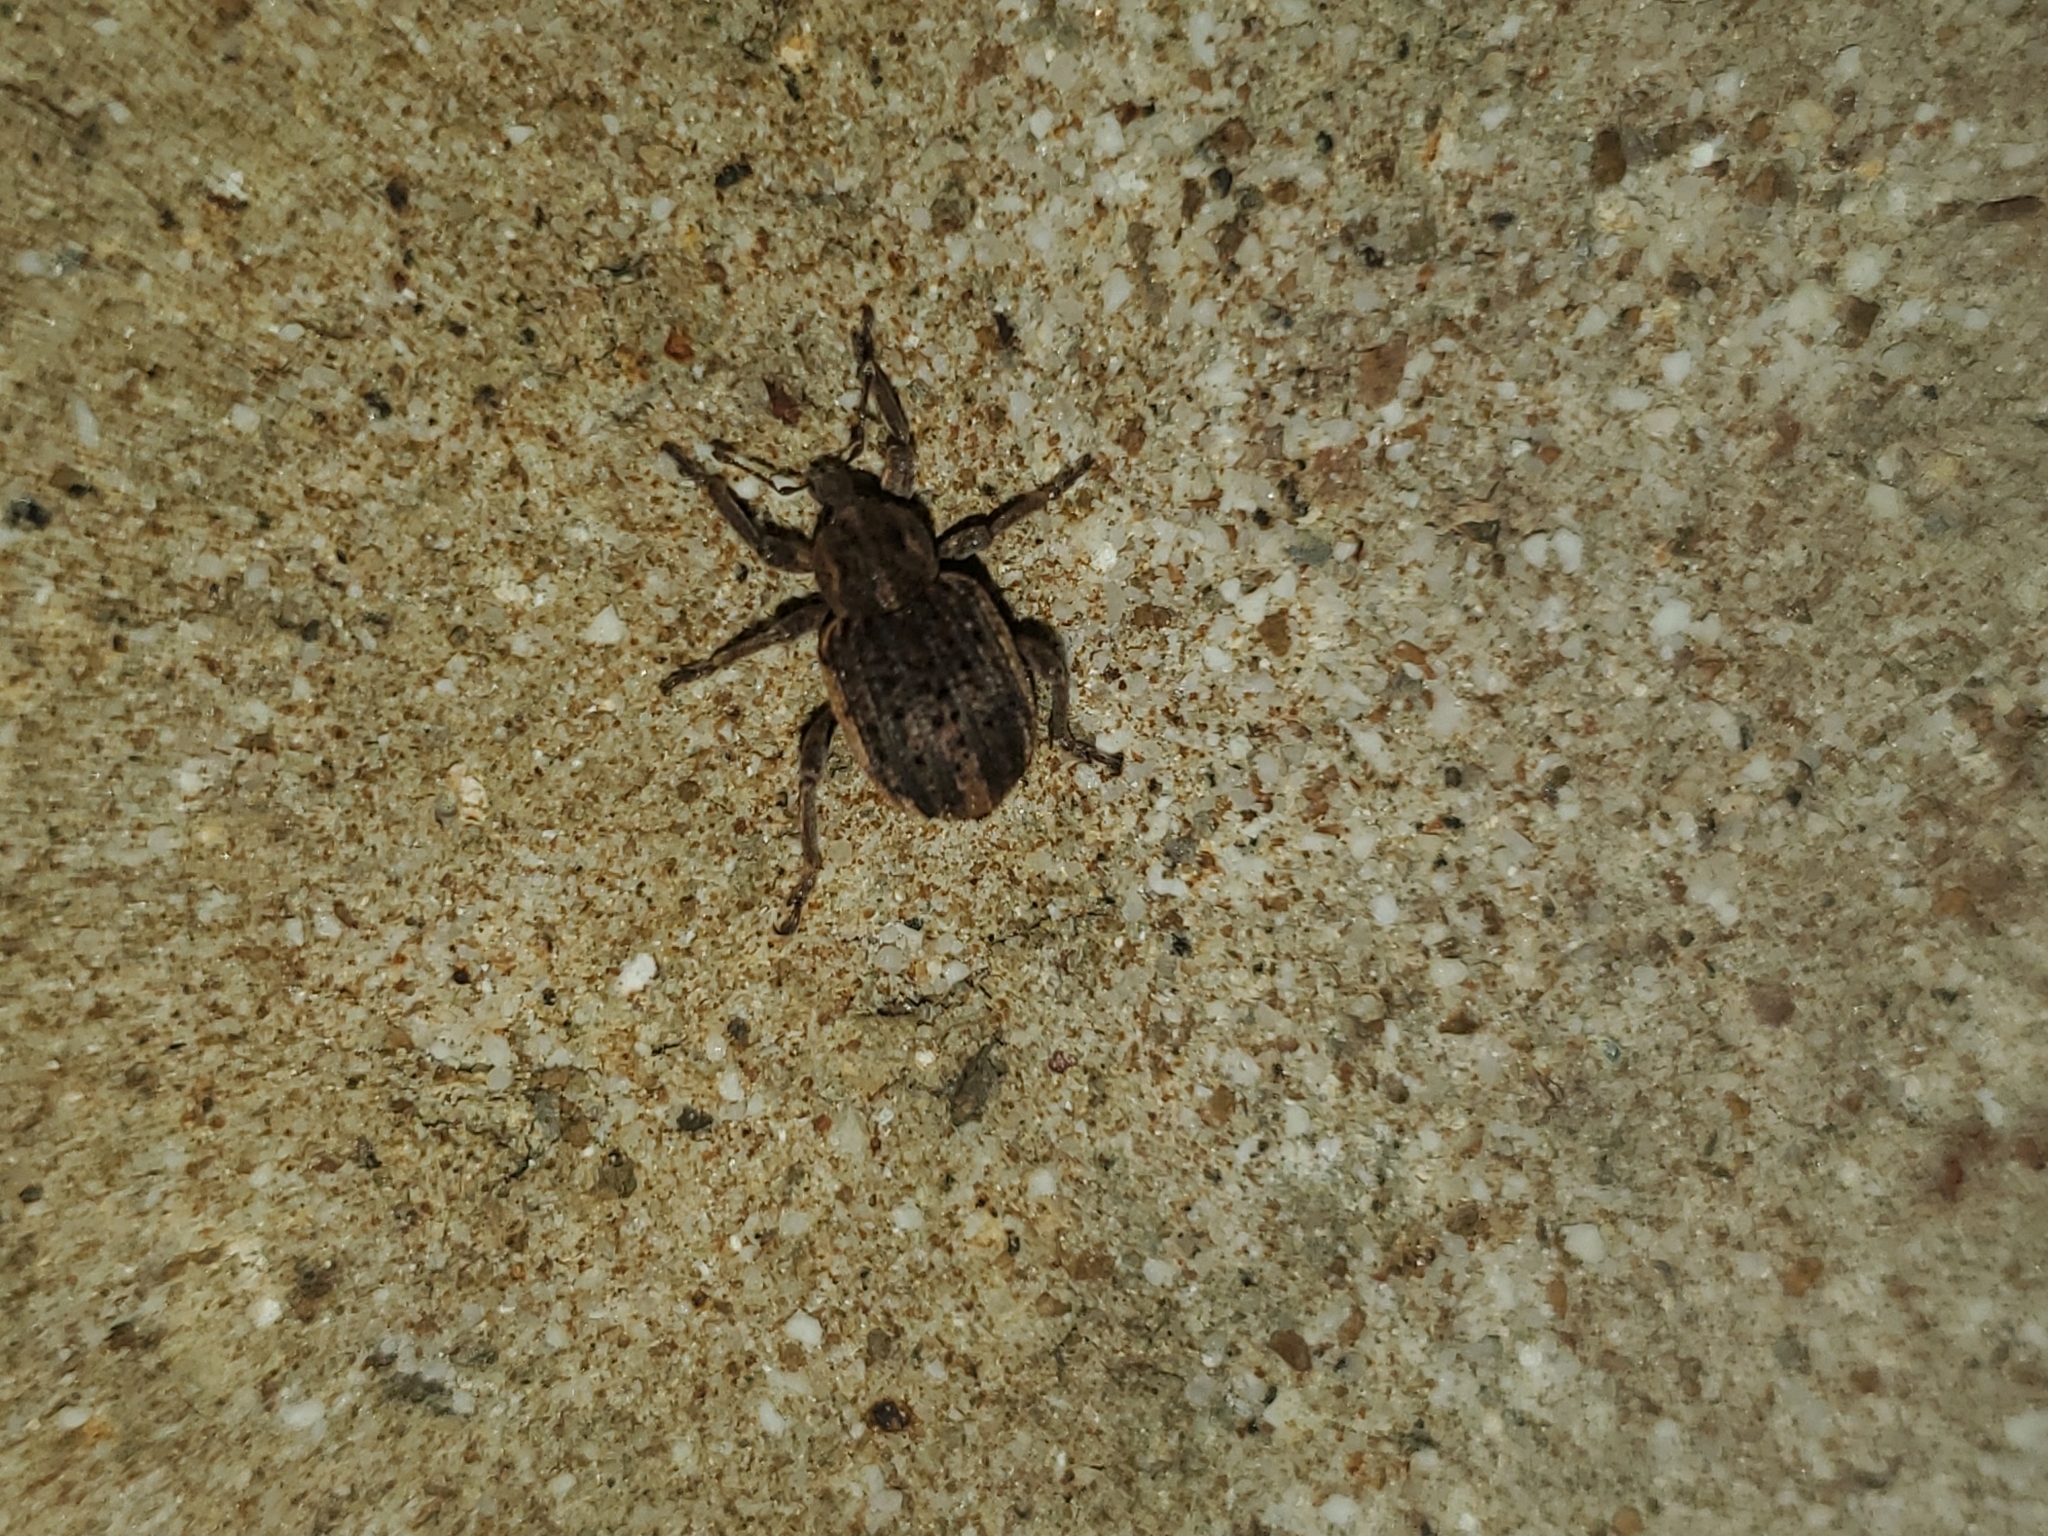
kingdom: Animalia
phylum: Arthropoda
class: Insecta
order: Coleoptera
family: Curculionidae
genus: Brachypera
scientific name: Brachypera zoilus
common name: Clover leaf weevil
